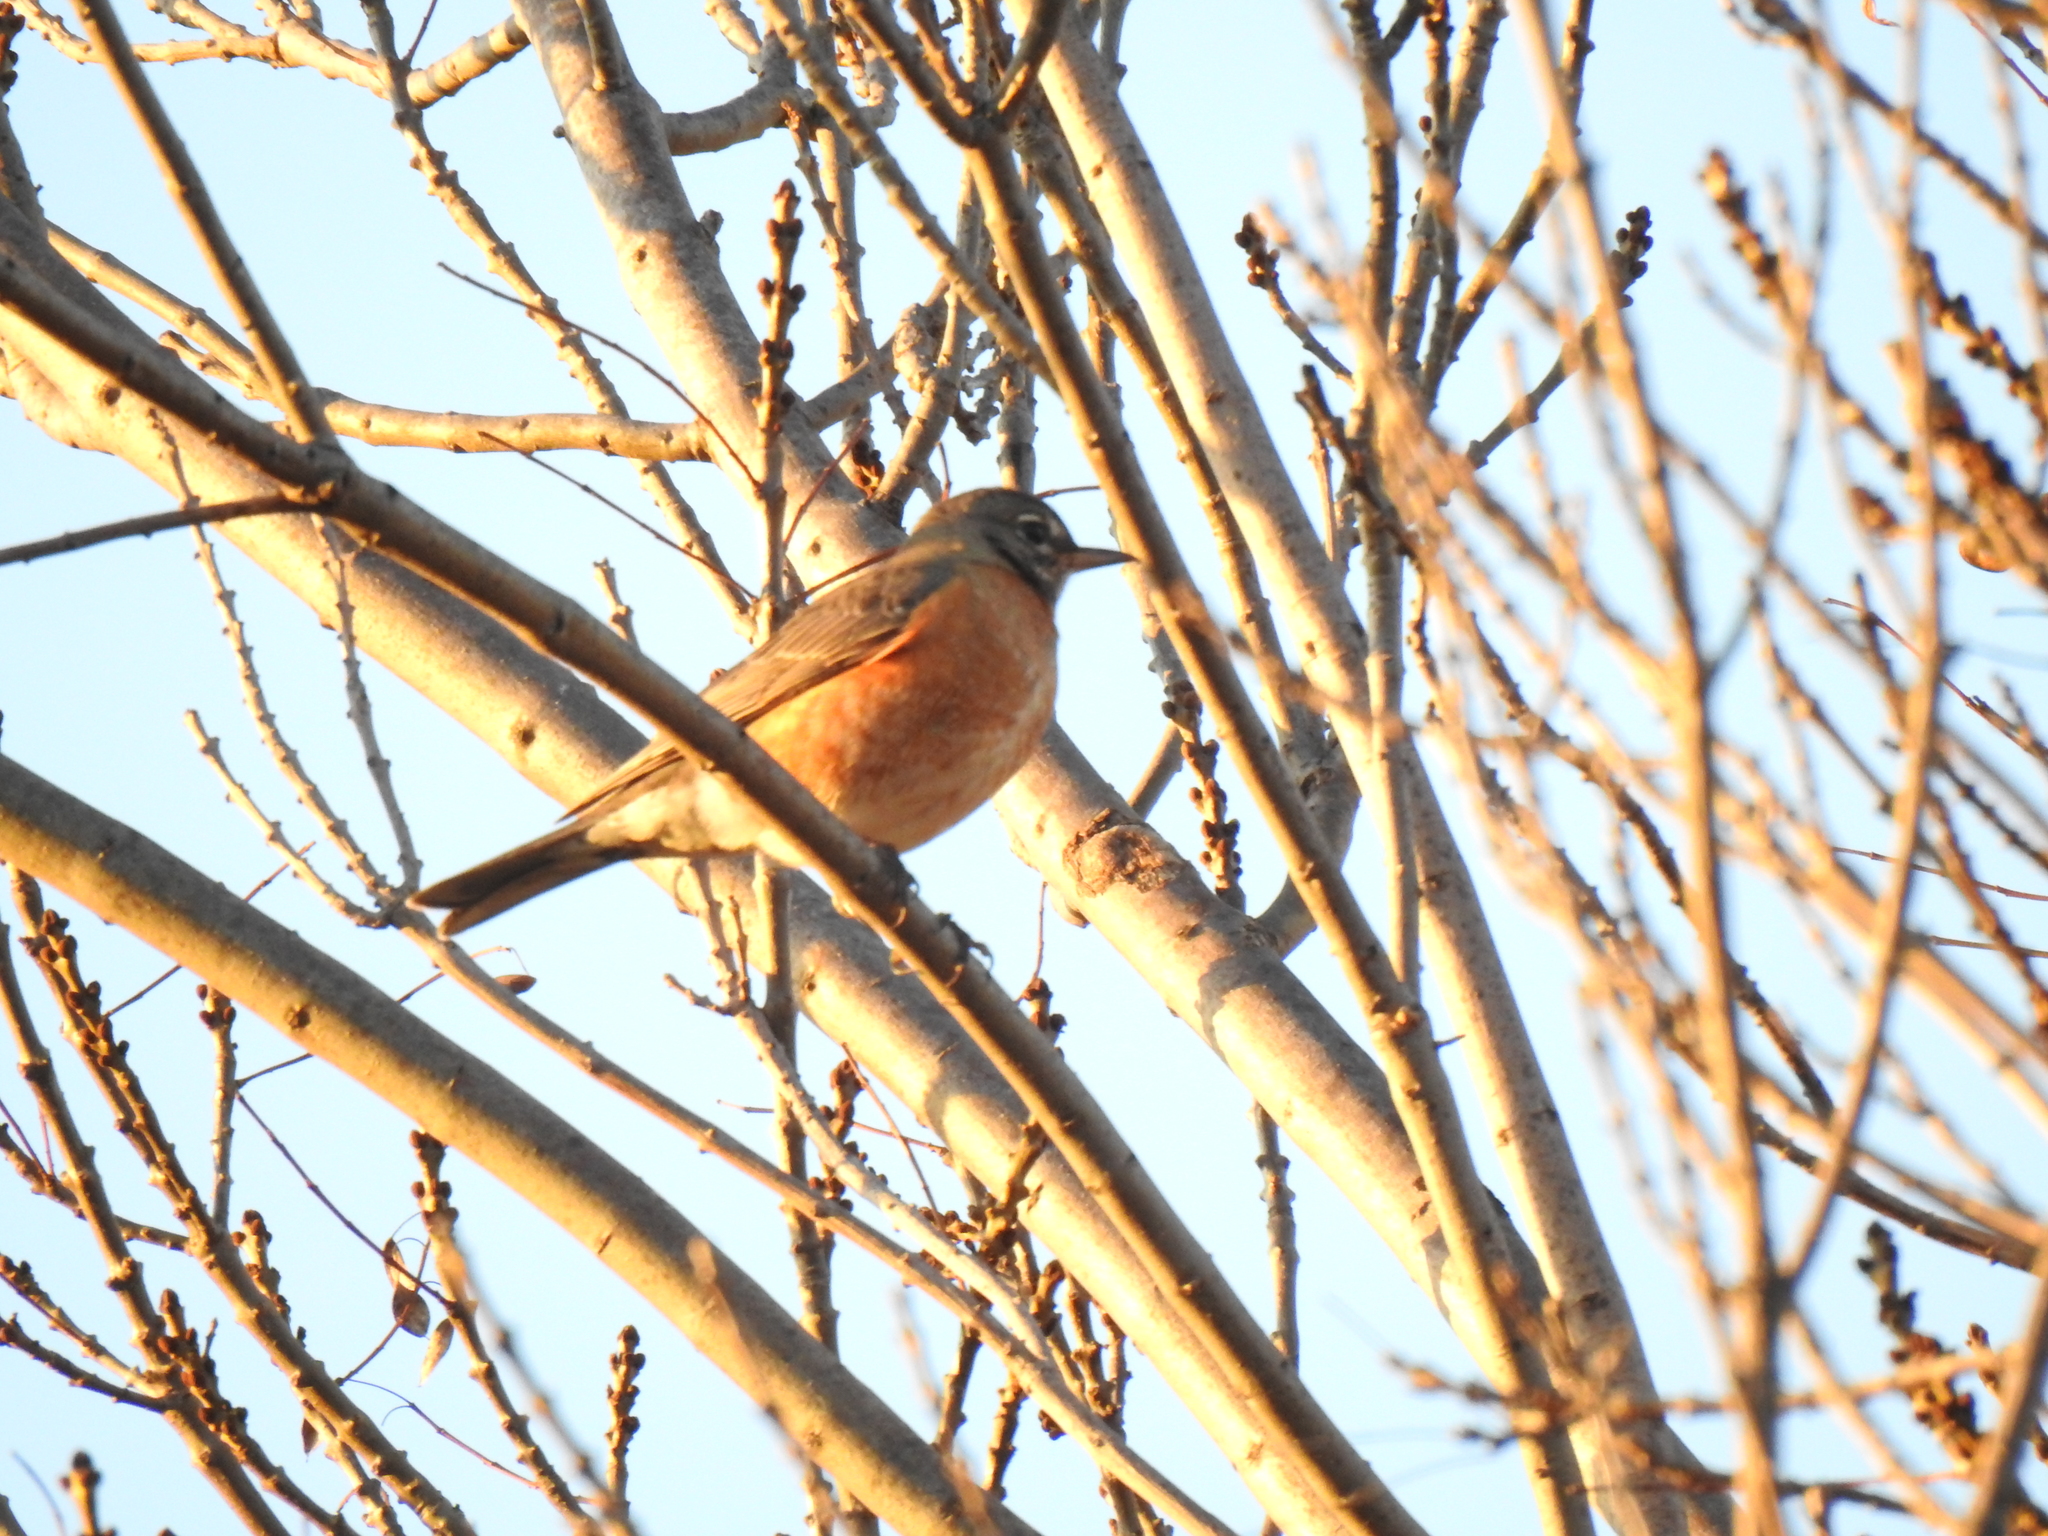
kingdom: Animalia
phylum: Chordata
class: Aves
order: Passeriformes
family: Turdidae
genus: Turdus
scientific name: Turdus migratorius
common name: American robin
